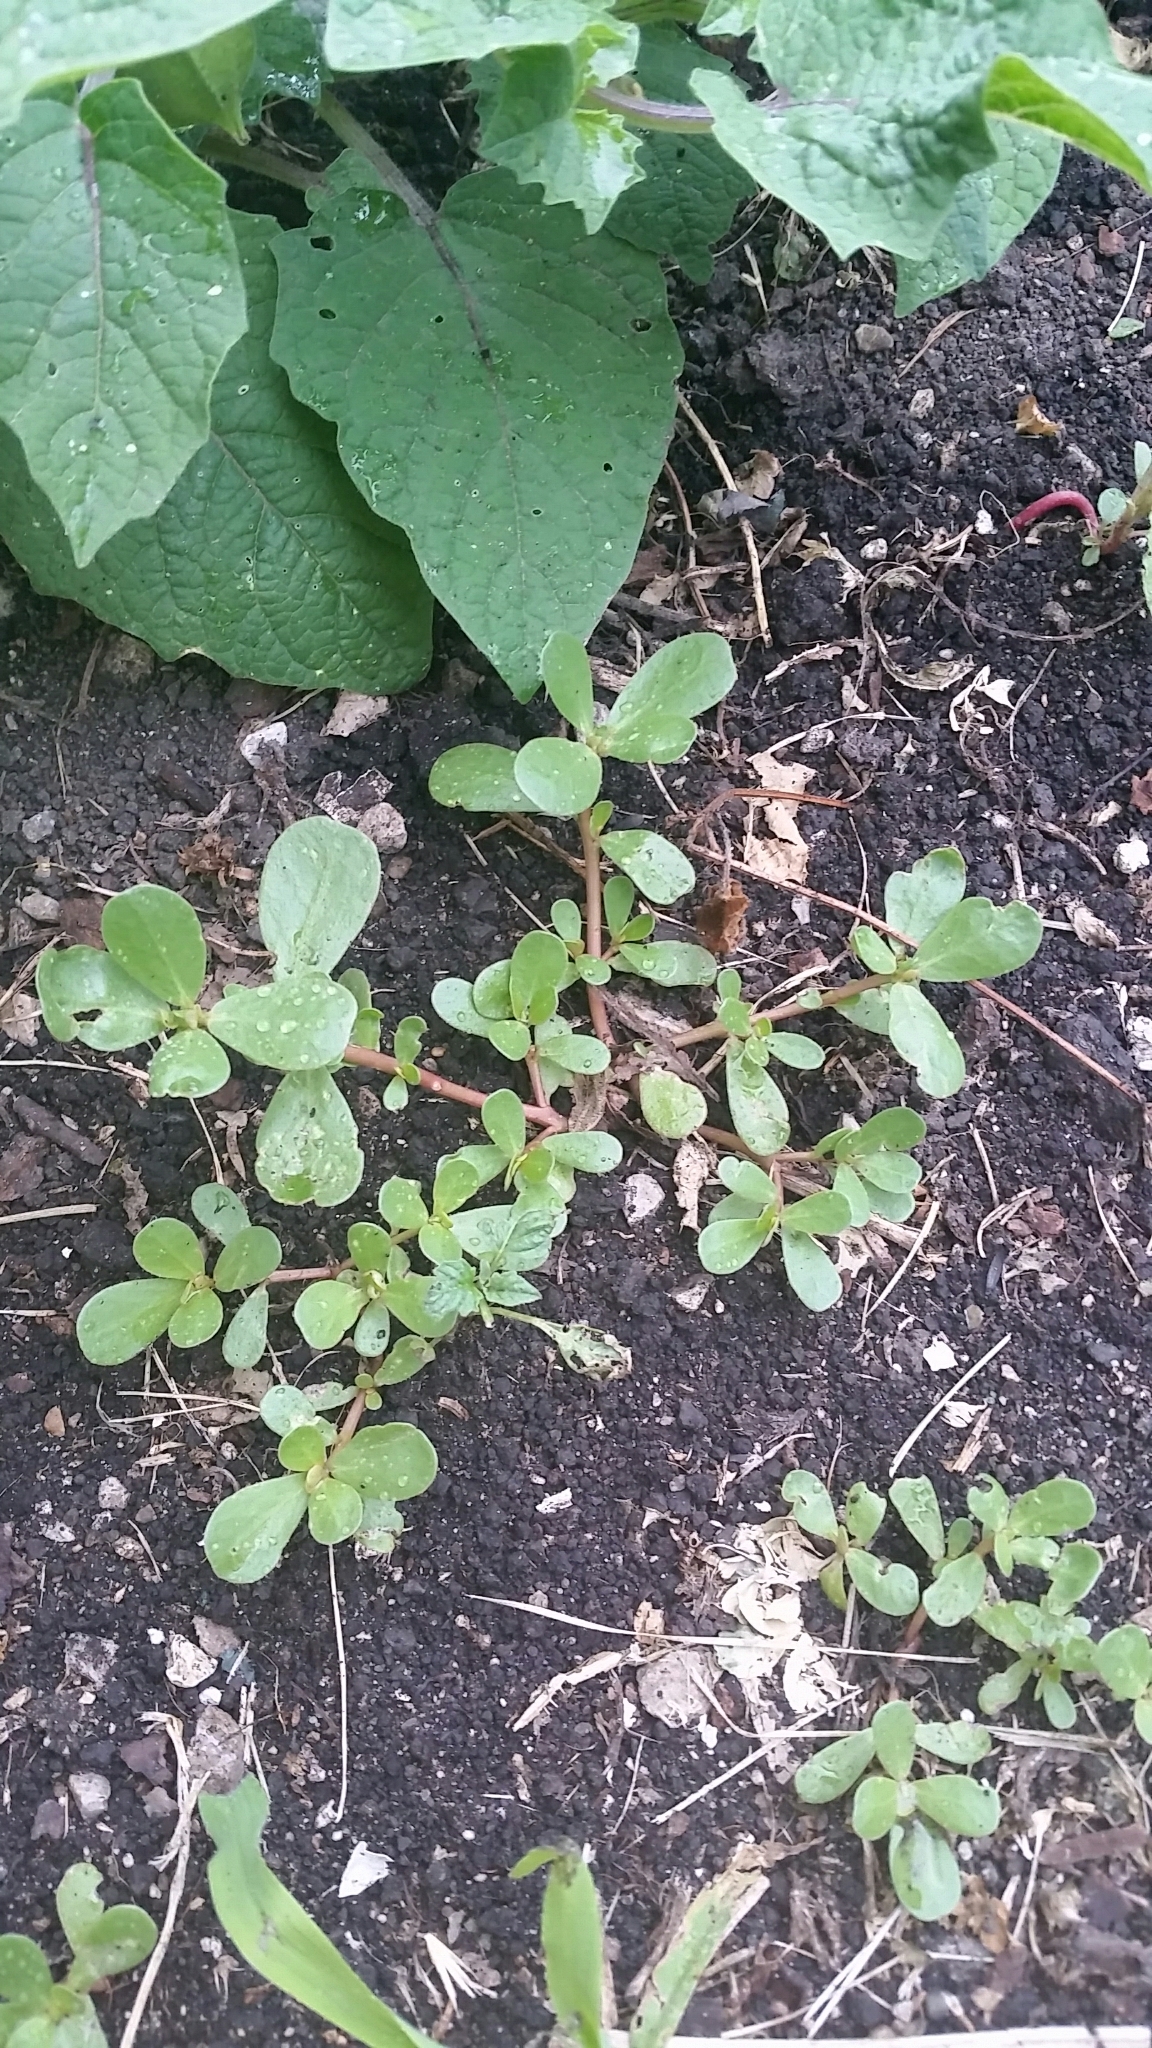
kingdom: Plantae
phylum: Tracheophyta
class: Magnoliopsida
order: Caryophyllales
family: Portulacaceae
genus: Portulaca
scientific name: Portulaca oleracea
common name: Common purslane
